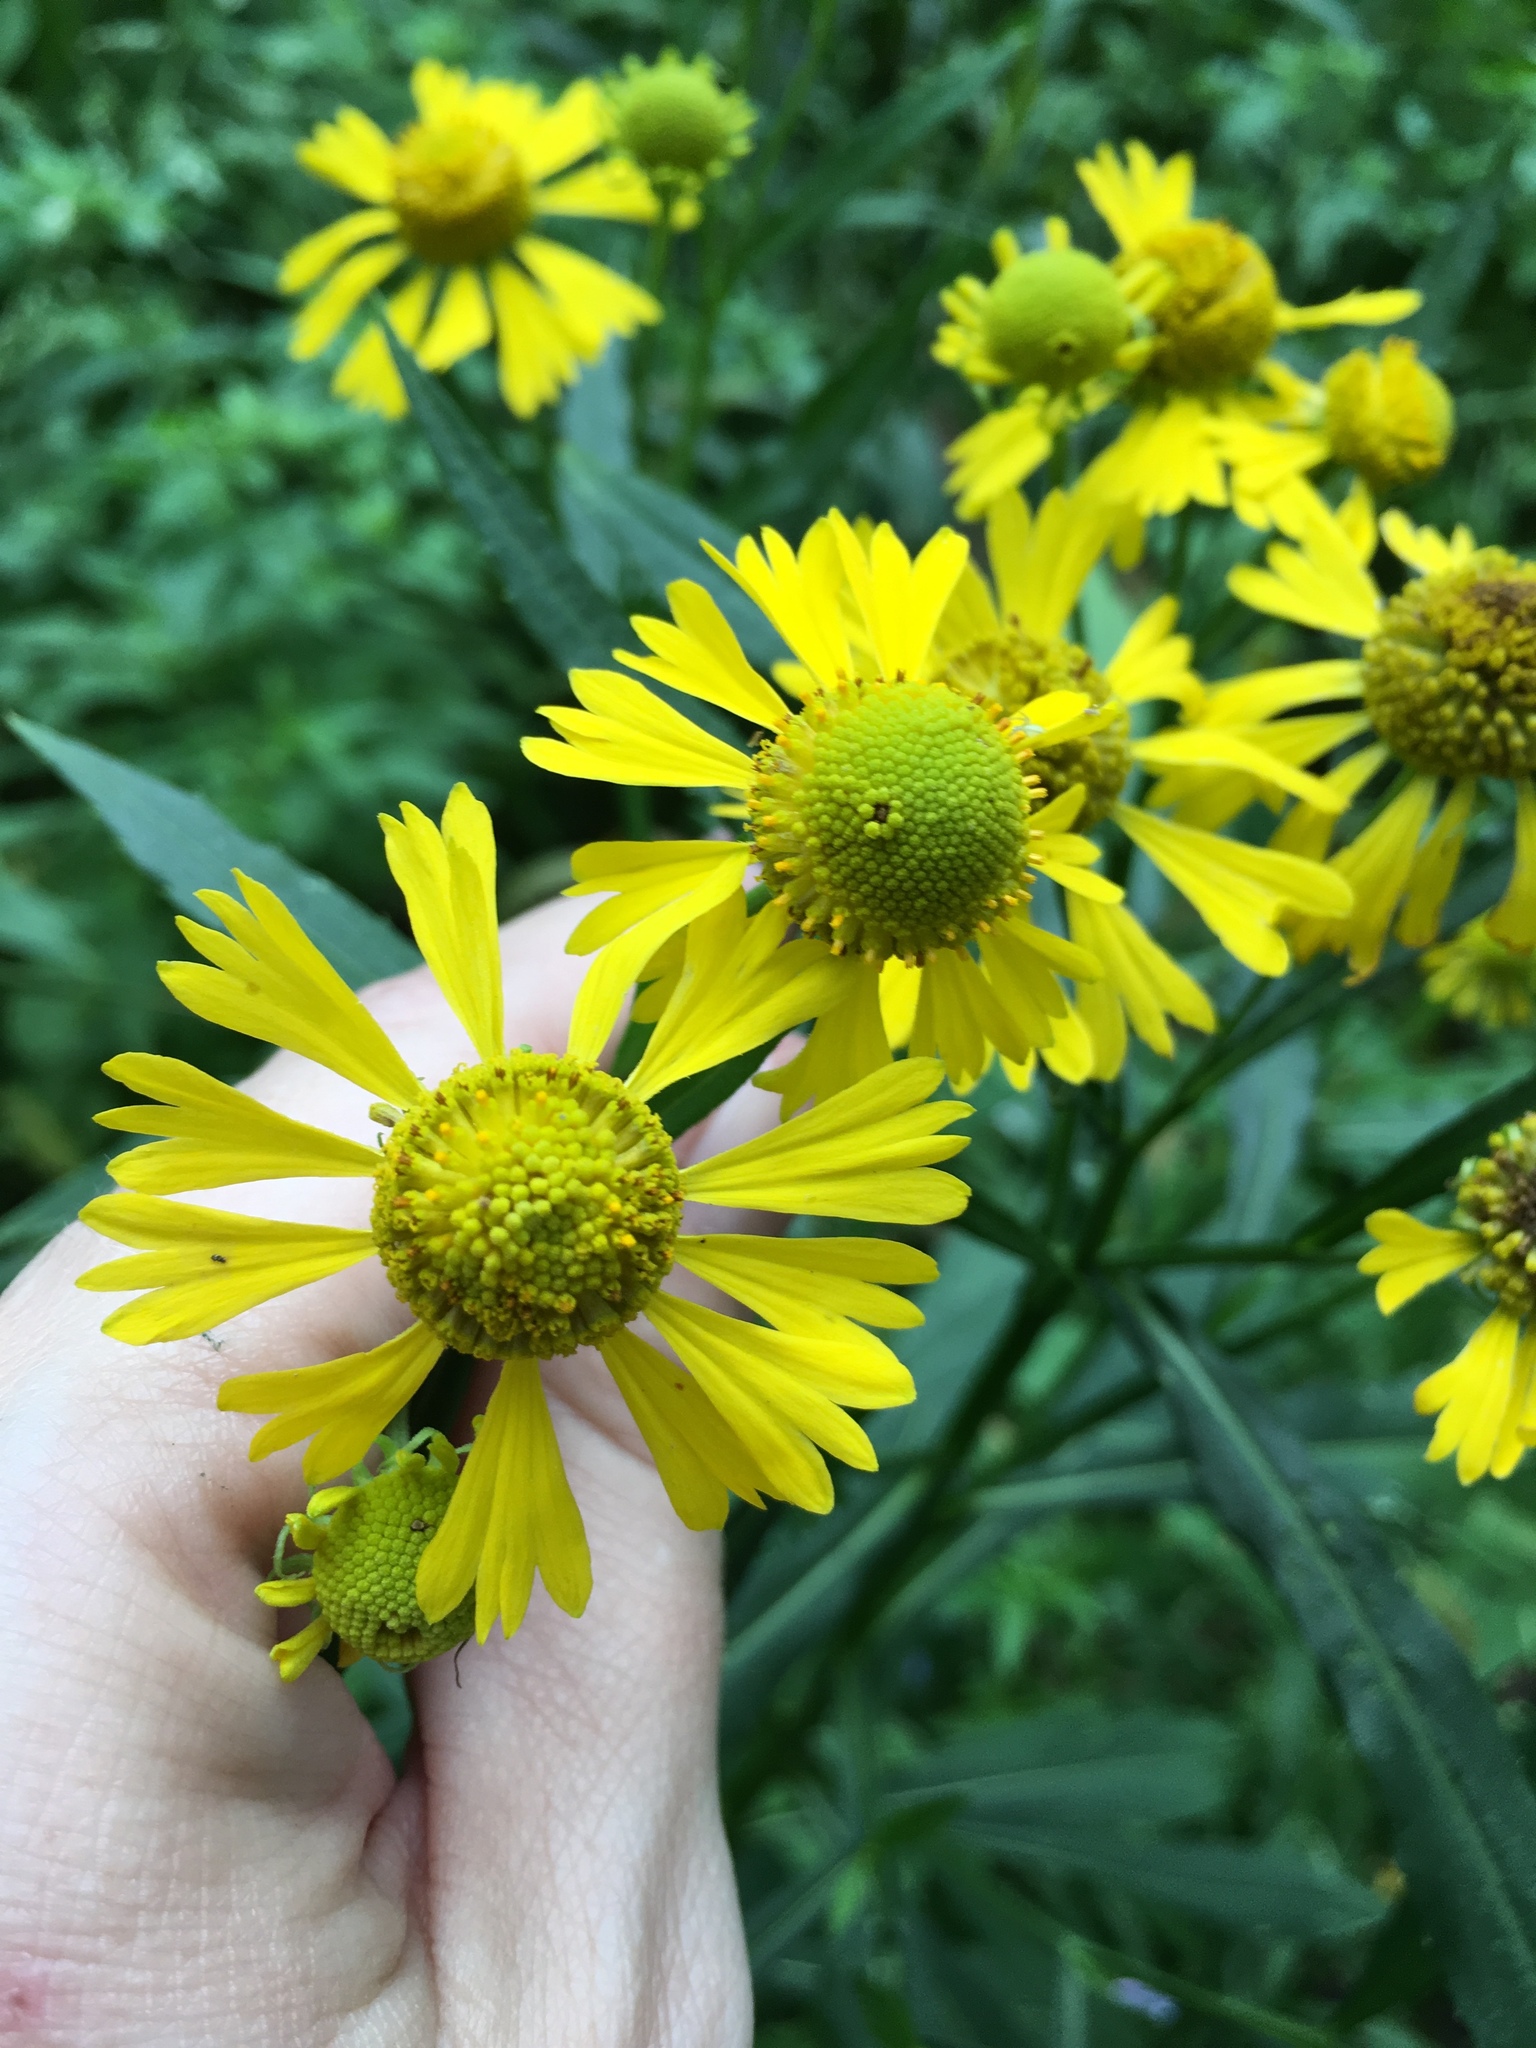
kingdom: Plantae
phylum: Tracheophyta
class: Magnoliopsida
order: Asterales
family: Asteraceae
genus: Helenium
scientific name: Helenium autumnale
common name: Sneezeweed
